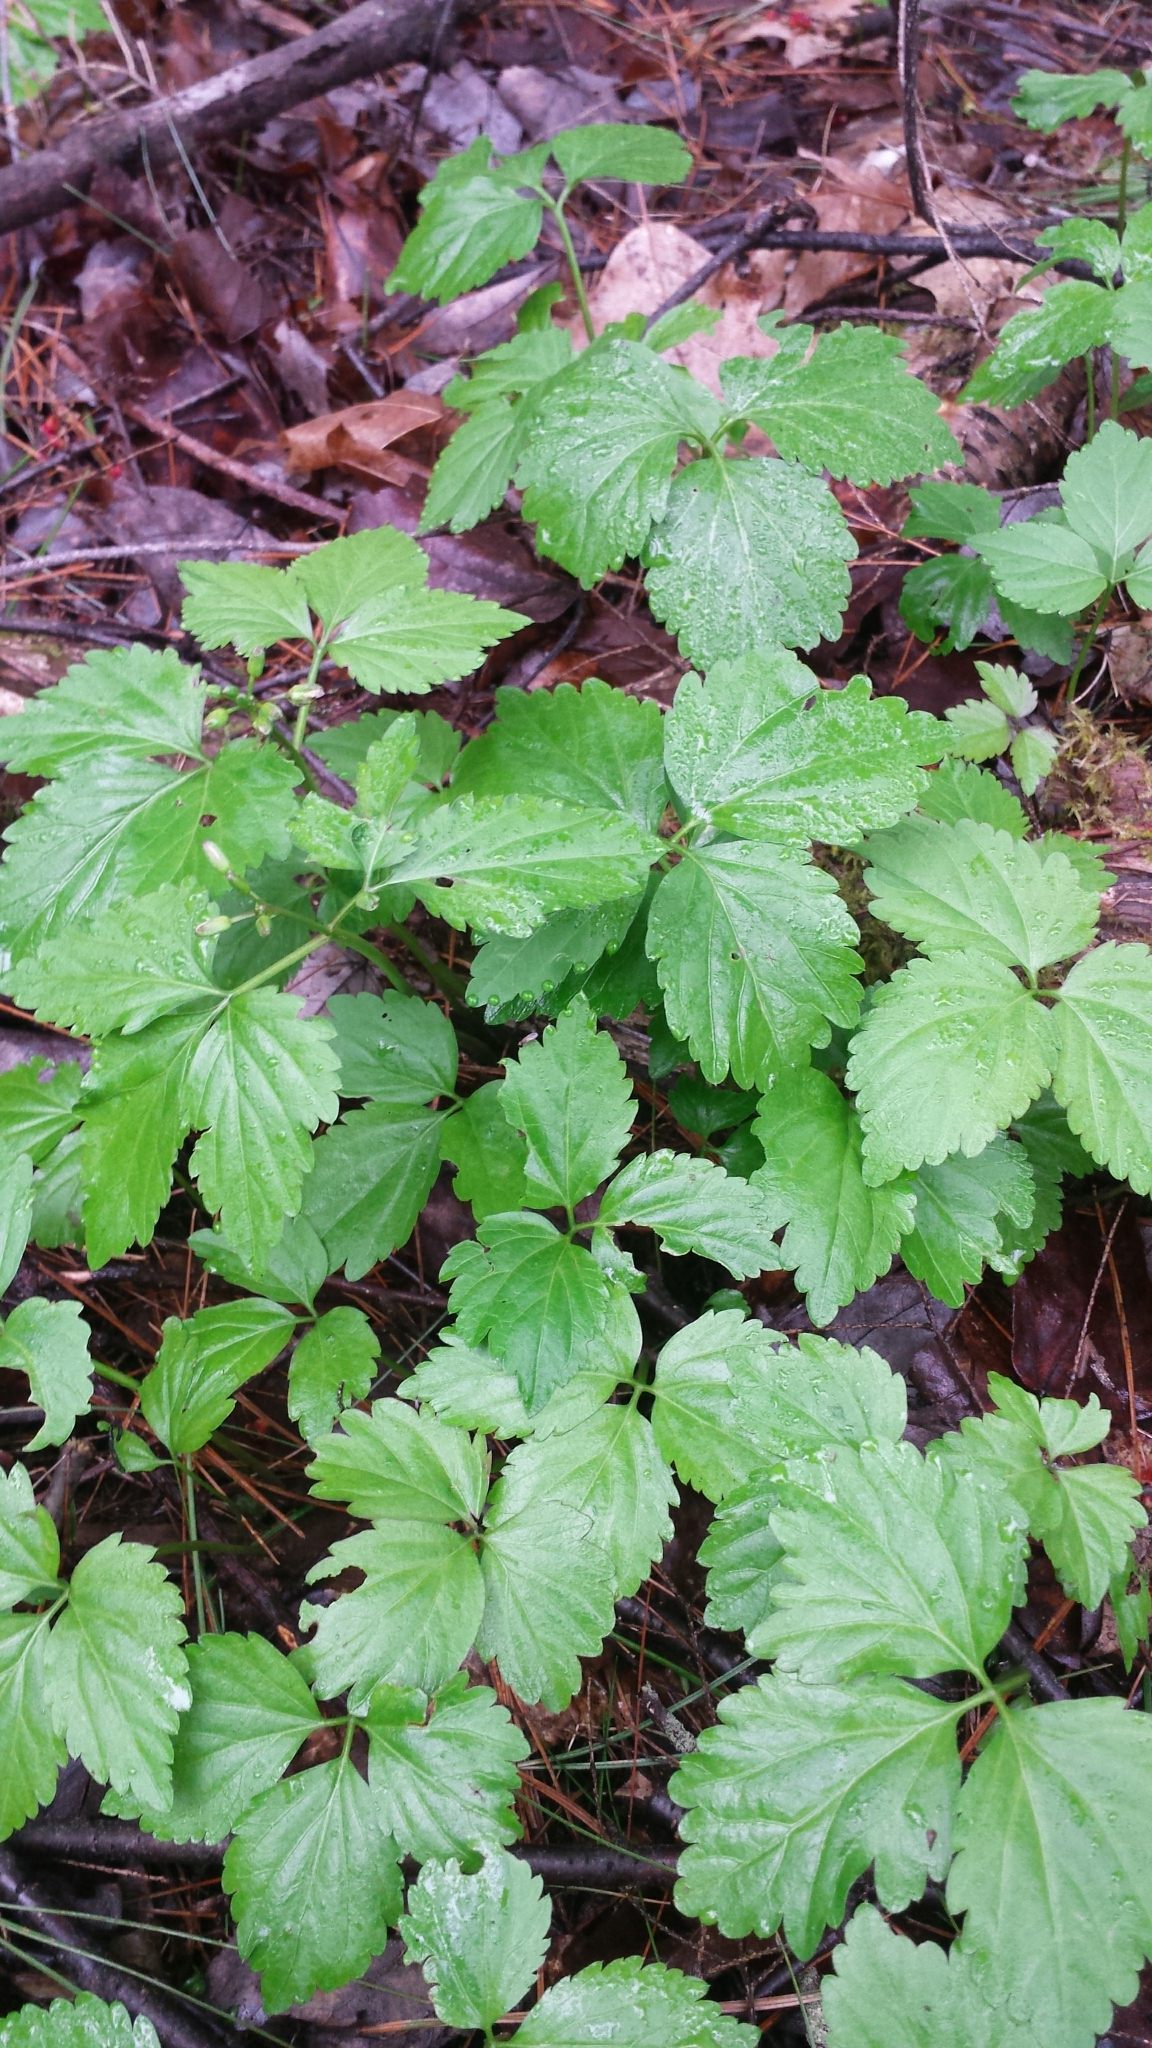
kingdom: Plantae
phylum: Tracheophyta
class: Magnoliopsida
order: Brassicales
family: Brassicaceae
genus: Cardamine
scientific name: Cardamine diphylla
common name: Broad-leaved toothwort
